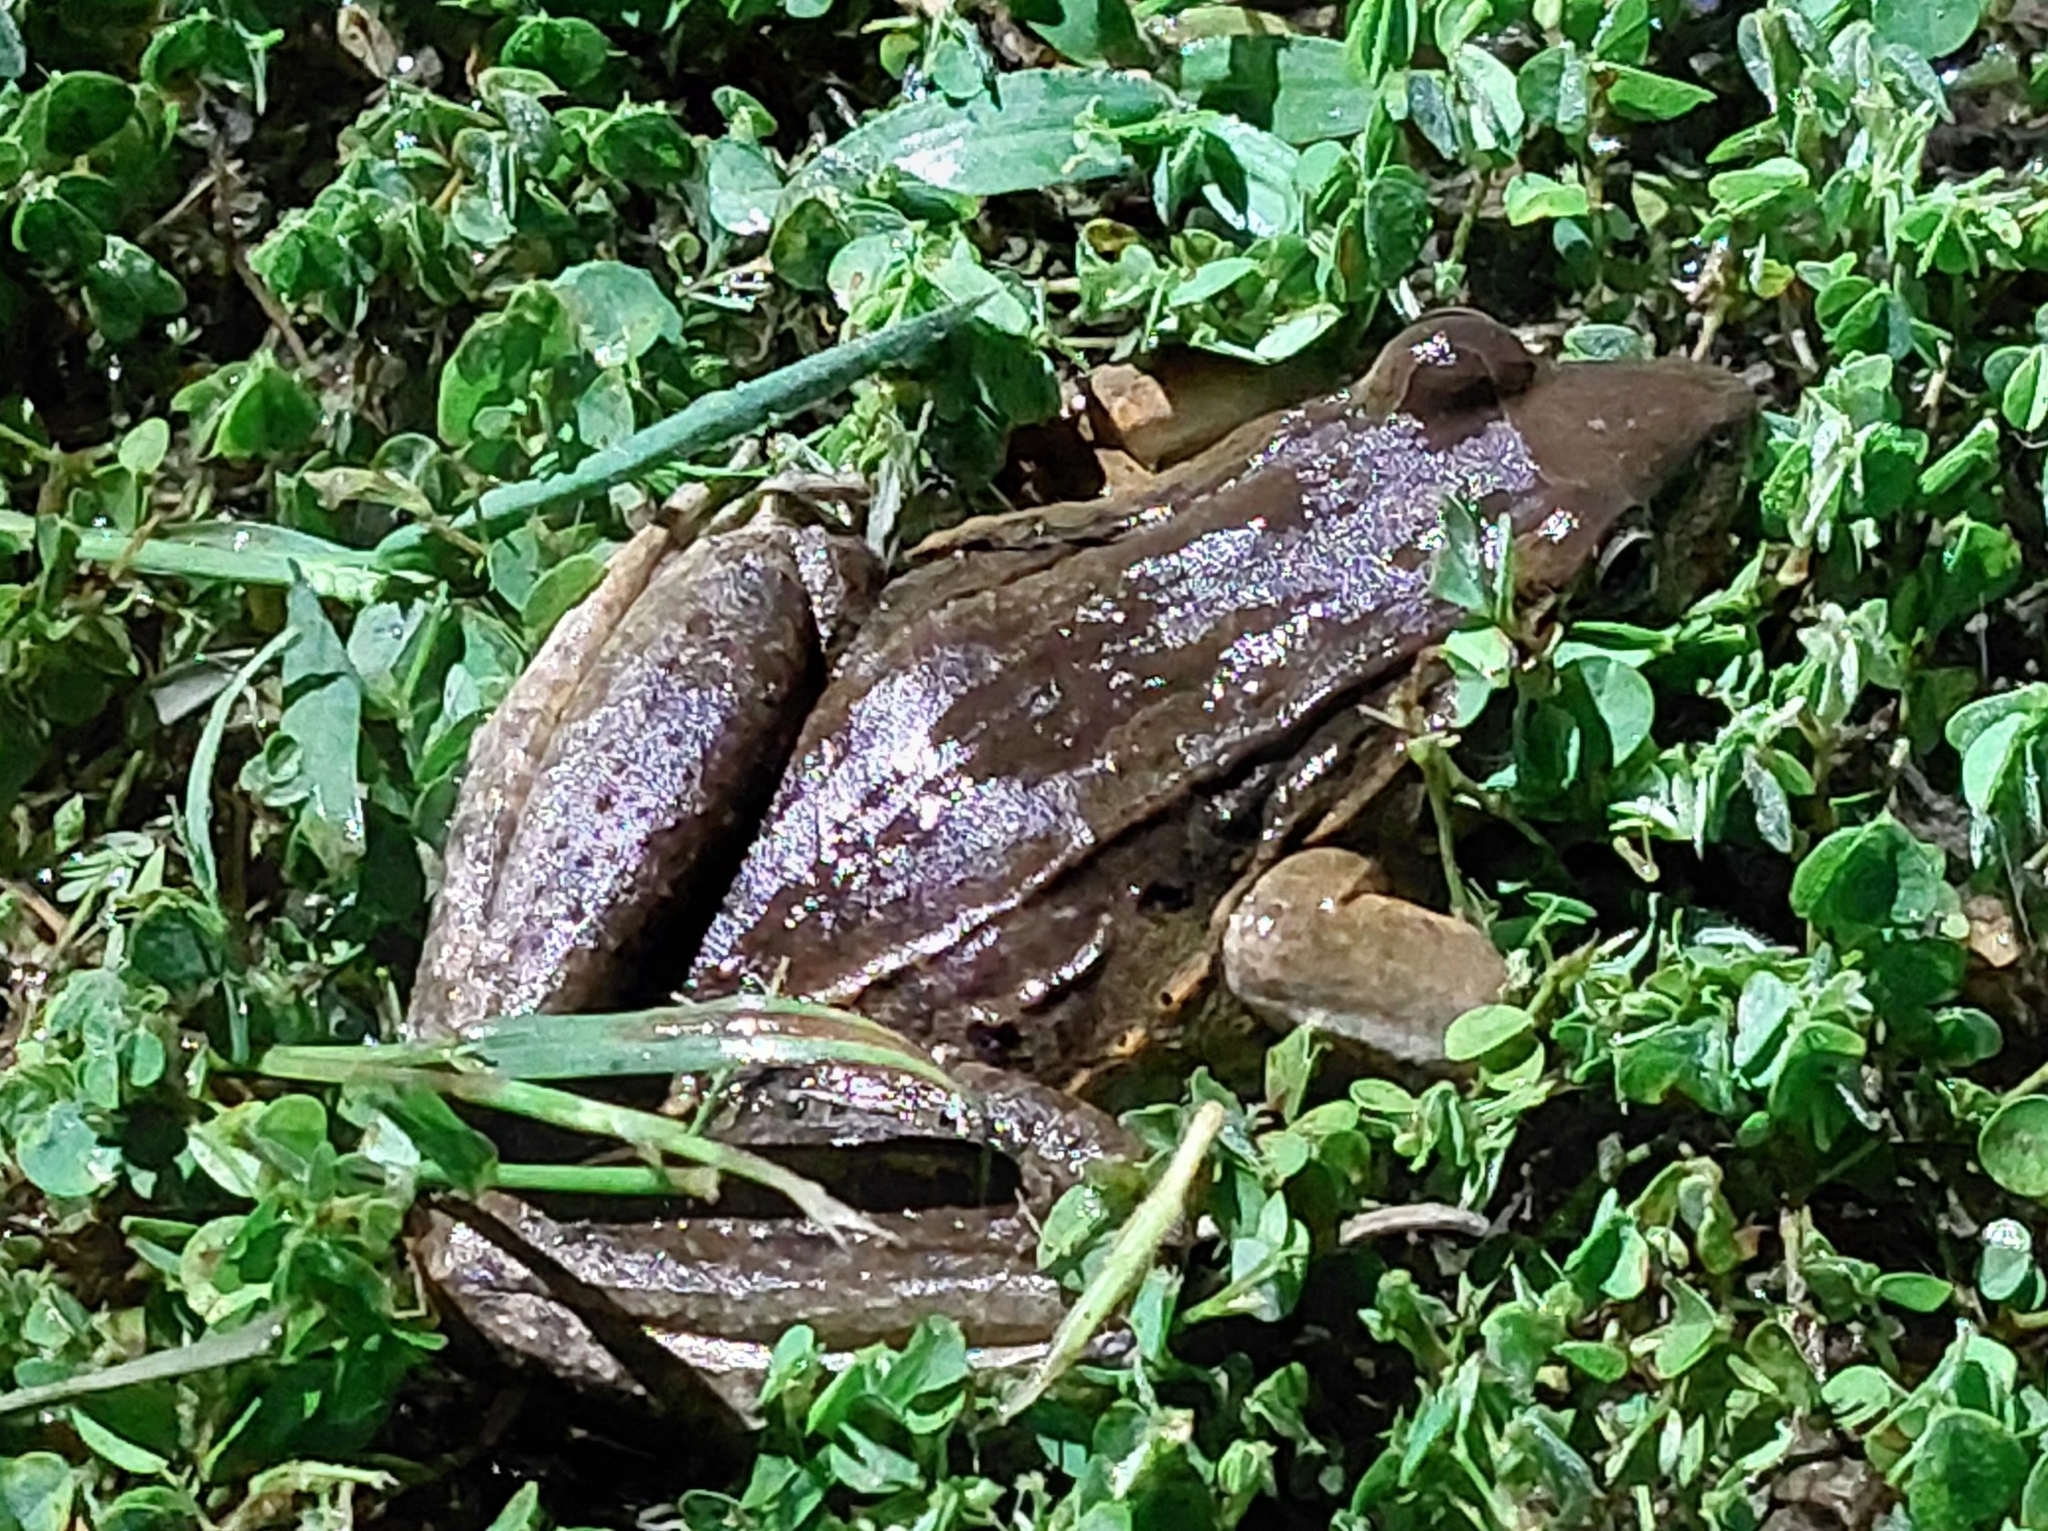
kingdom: Animalia
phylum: Chordata
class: Amphibia
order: Anura
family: Leptodactylidae
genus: Leptodactylus
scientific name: Leptodactylus insularum
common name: San miguel island frog
